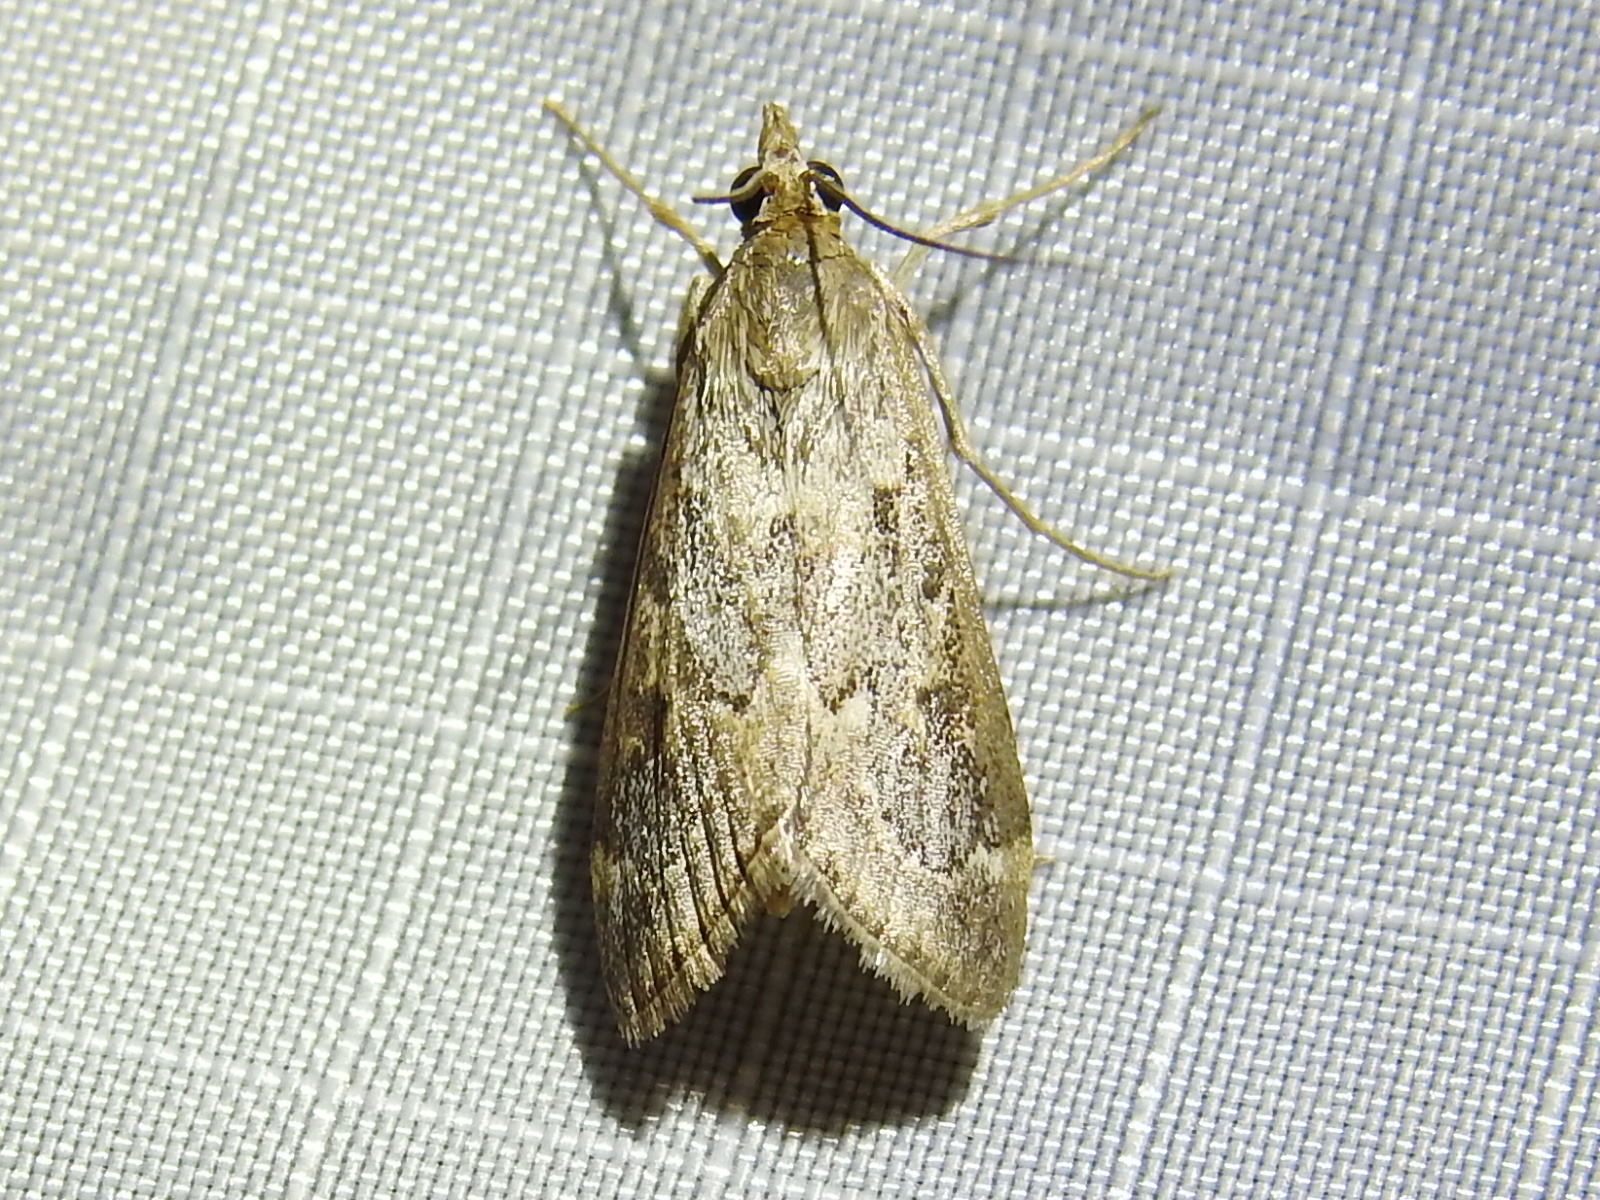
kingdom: Animalia
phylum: Arthropoda
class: Insecta
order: Lepidoptera
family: Crambidae
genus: Loxostege
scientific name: Loxostege allectalis
